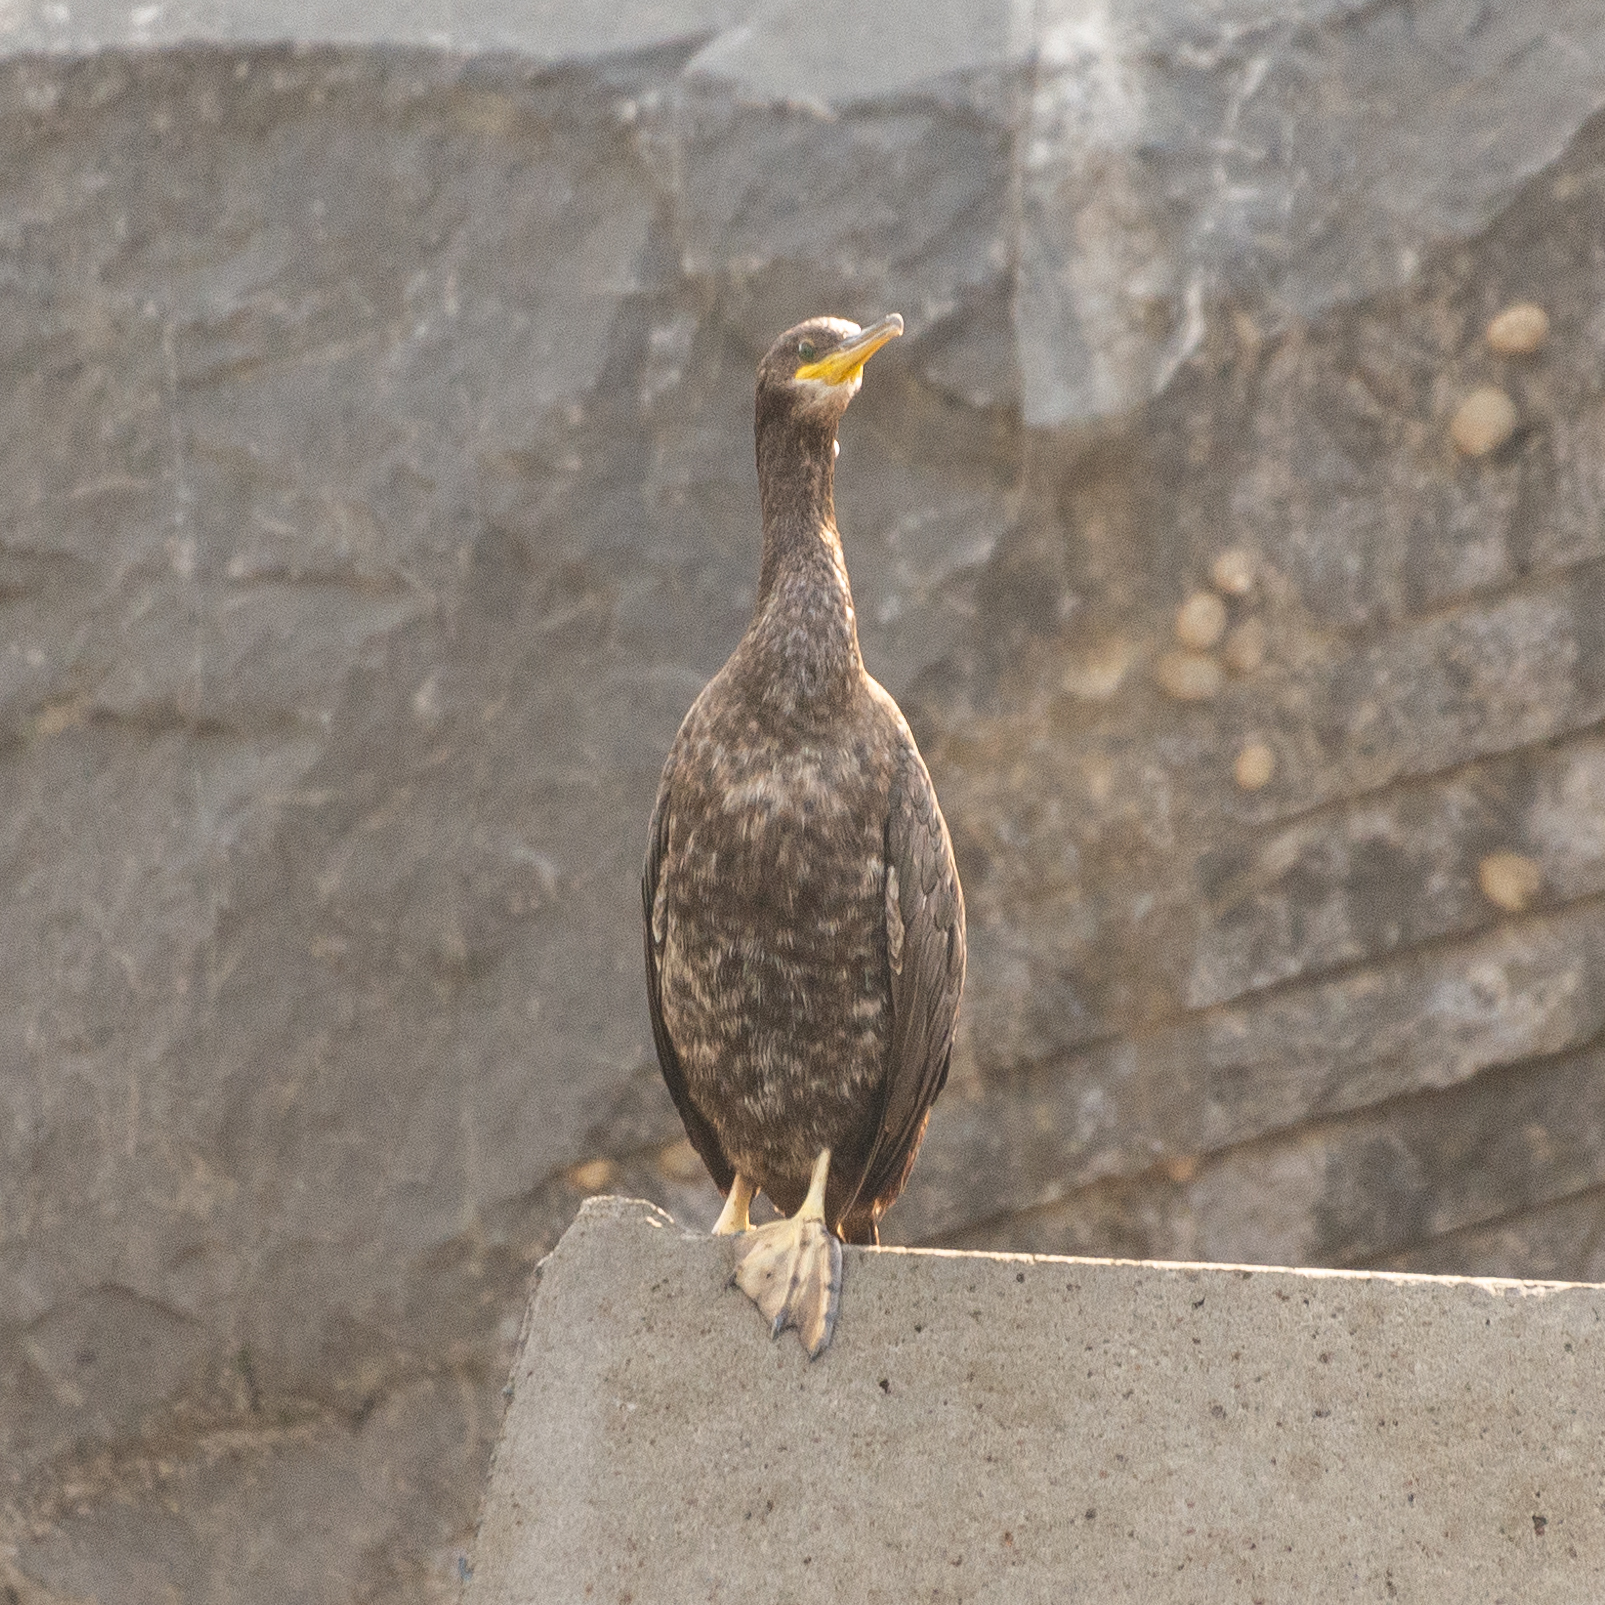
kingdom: Animalia
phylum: Chordata
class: Aves
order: Suliformes
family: Phalacrocoracidae
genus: Phalacrocorax
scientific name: Phalacrocorax aristotelis
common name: European shag
